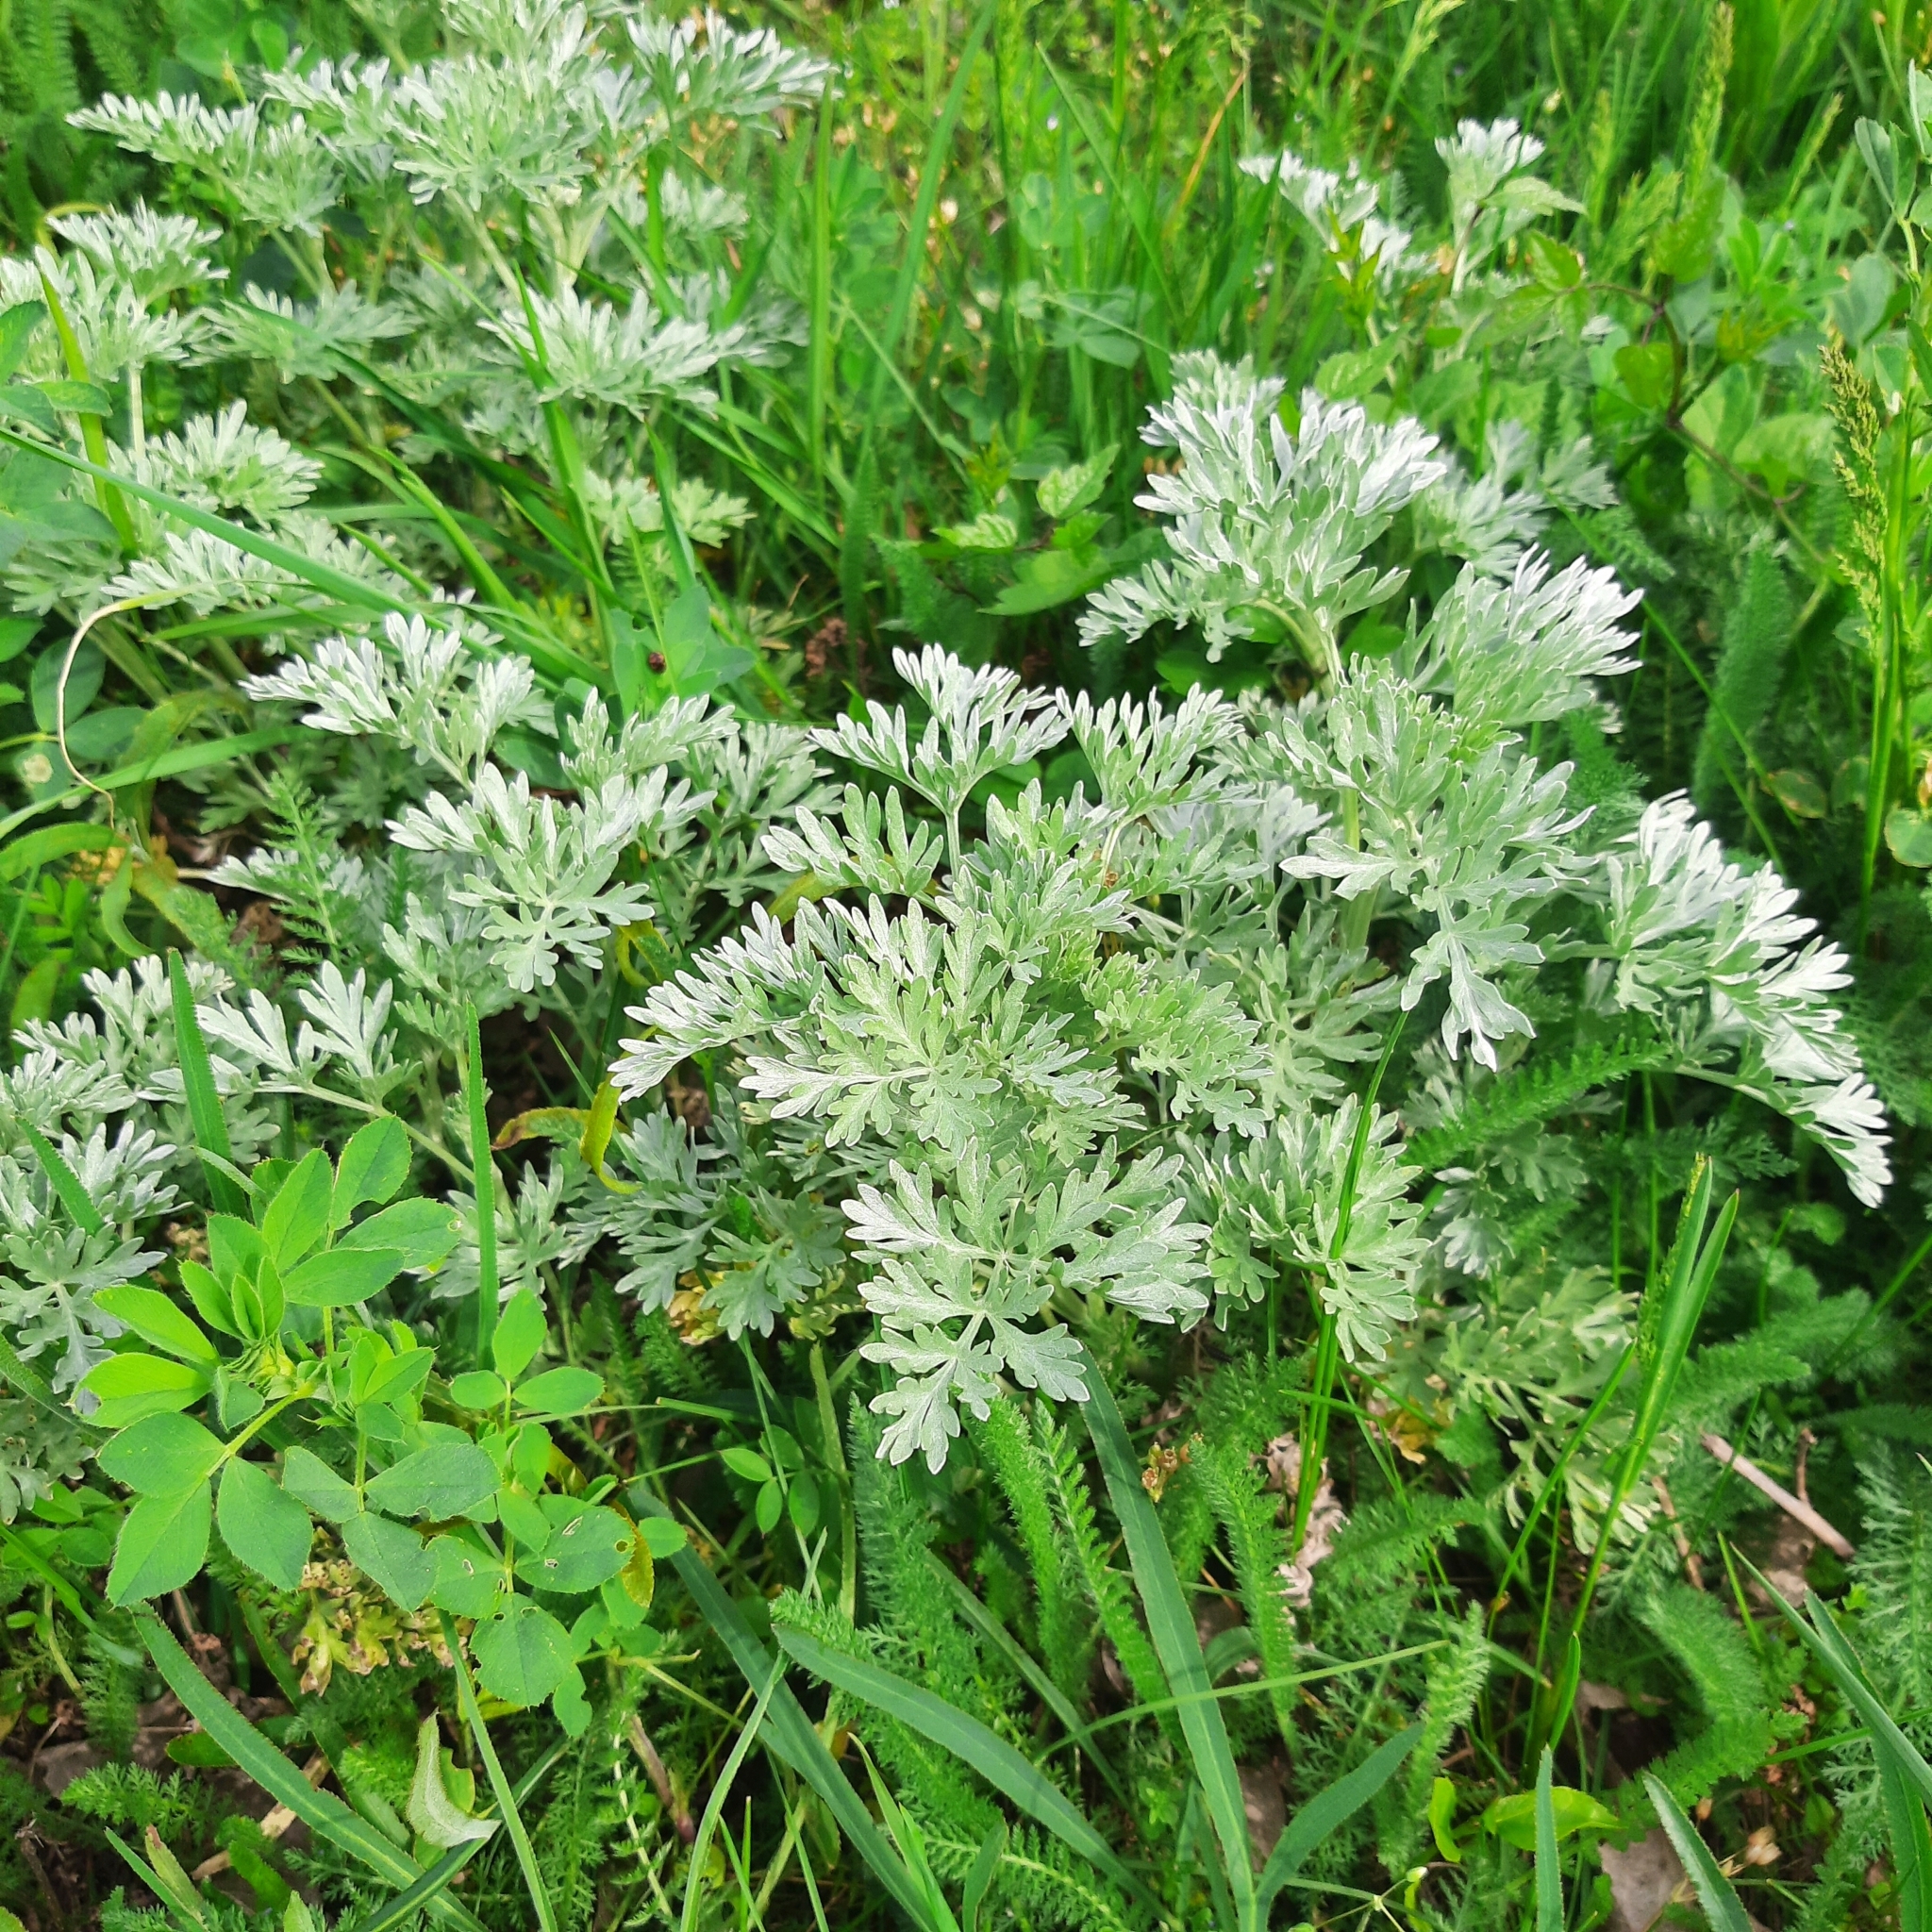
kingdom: Plantae
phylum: Tracheophyta
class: Magnoliopsida
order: Asterales
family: Asteraceae
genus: Artemisia
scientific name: Artemisia absinthium
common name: Wormwood
